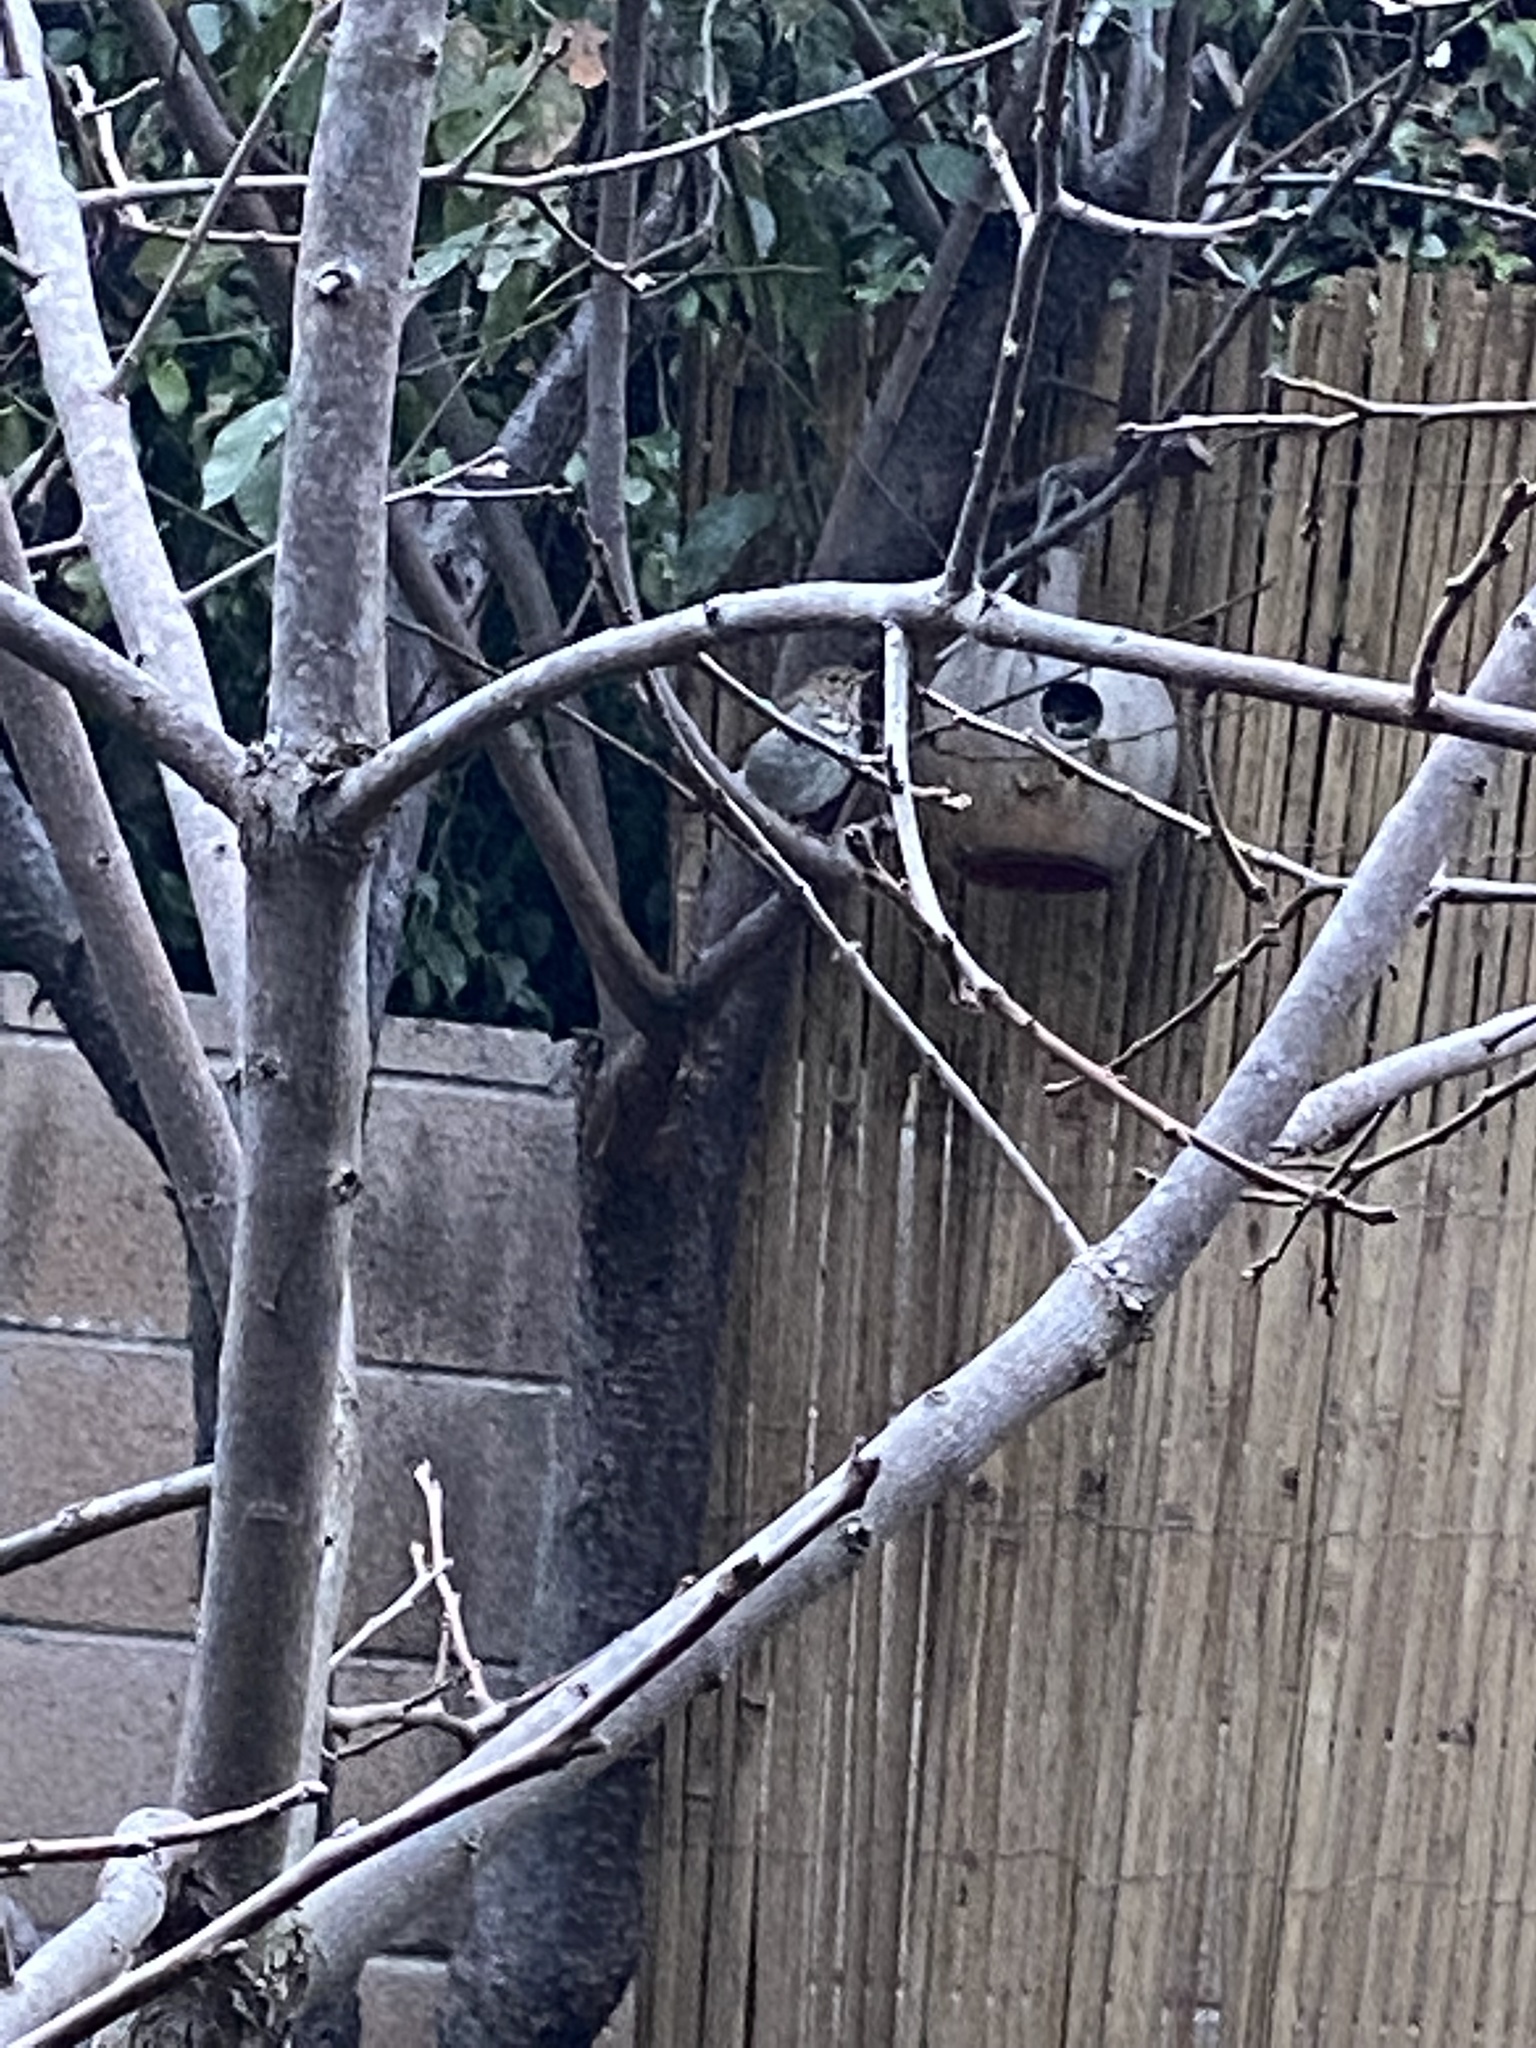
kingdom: Animalia
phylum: Chordata
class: Aves
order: Passeriformes
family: Turdidae
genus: Catharus
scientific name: Catharus guttatus
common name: Hermit thrush
